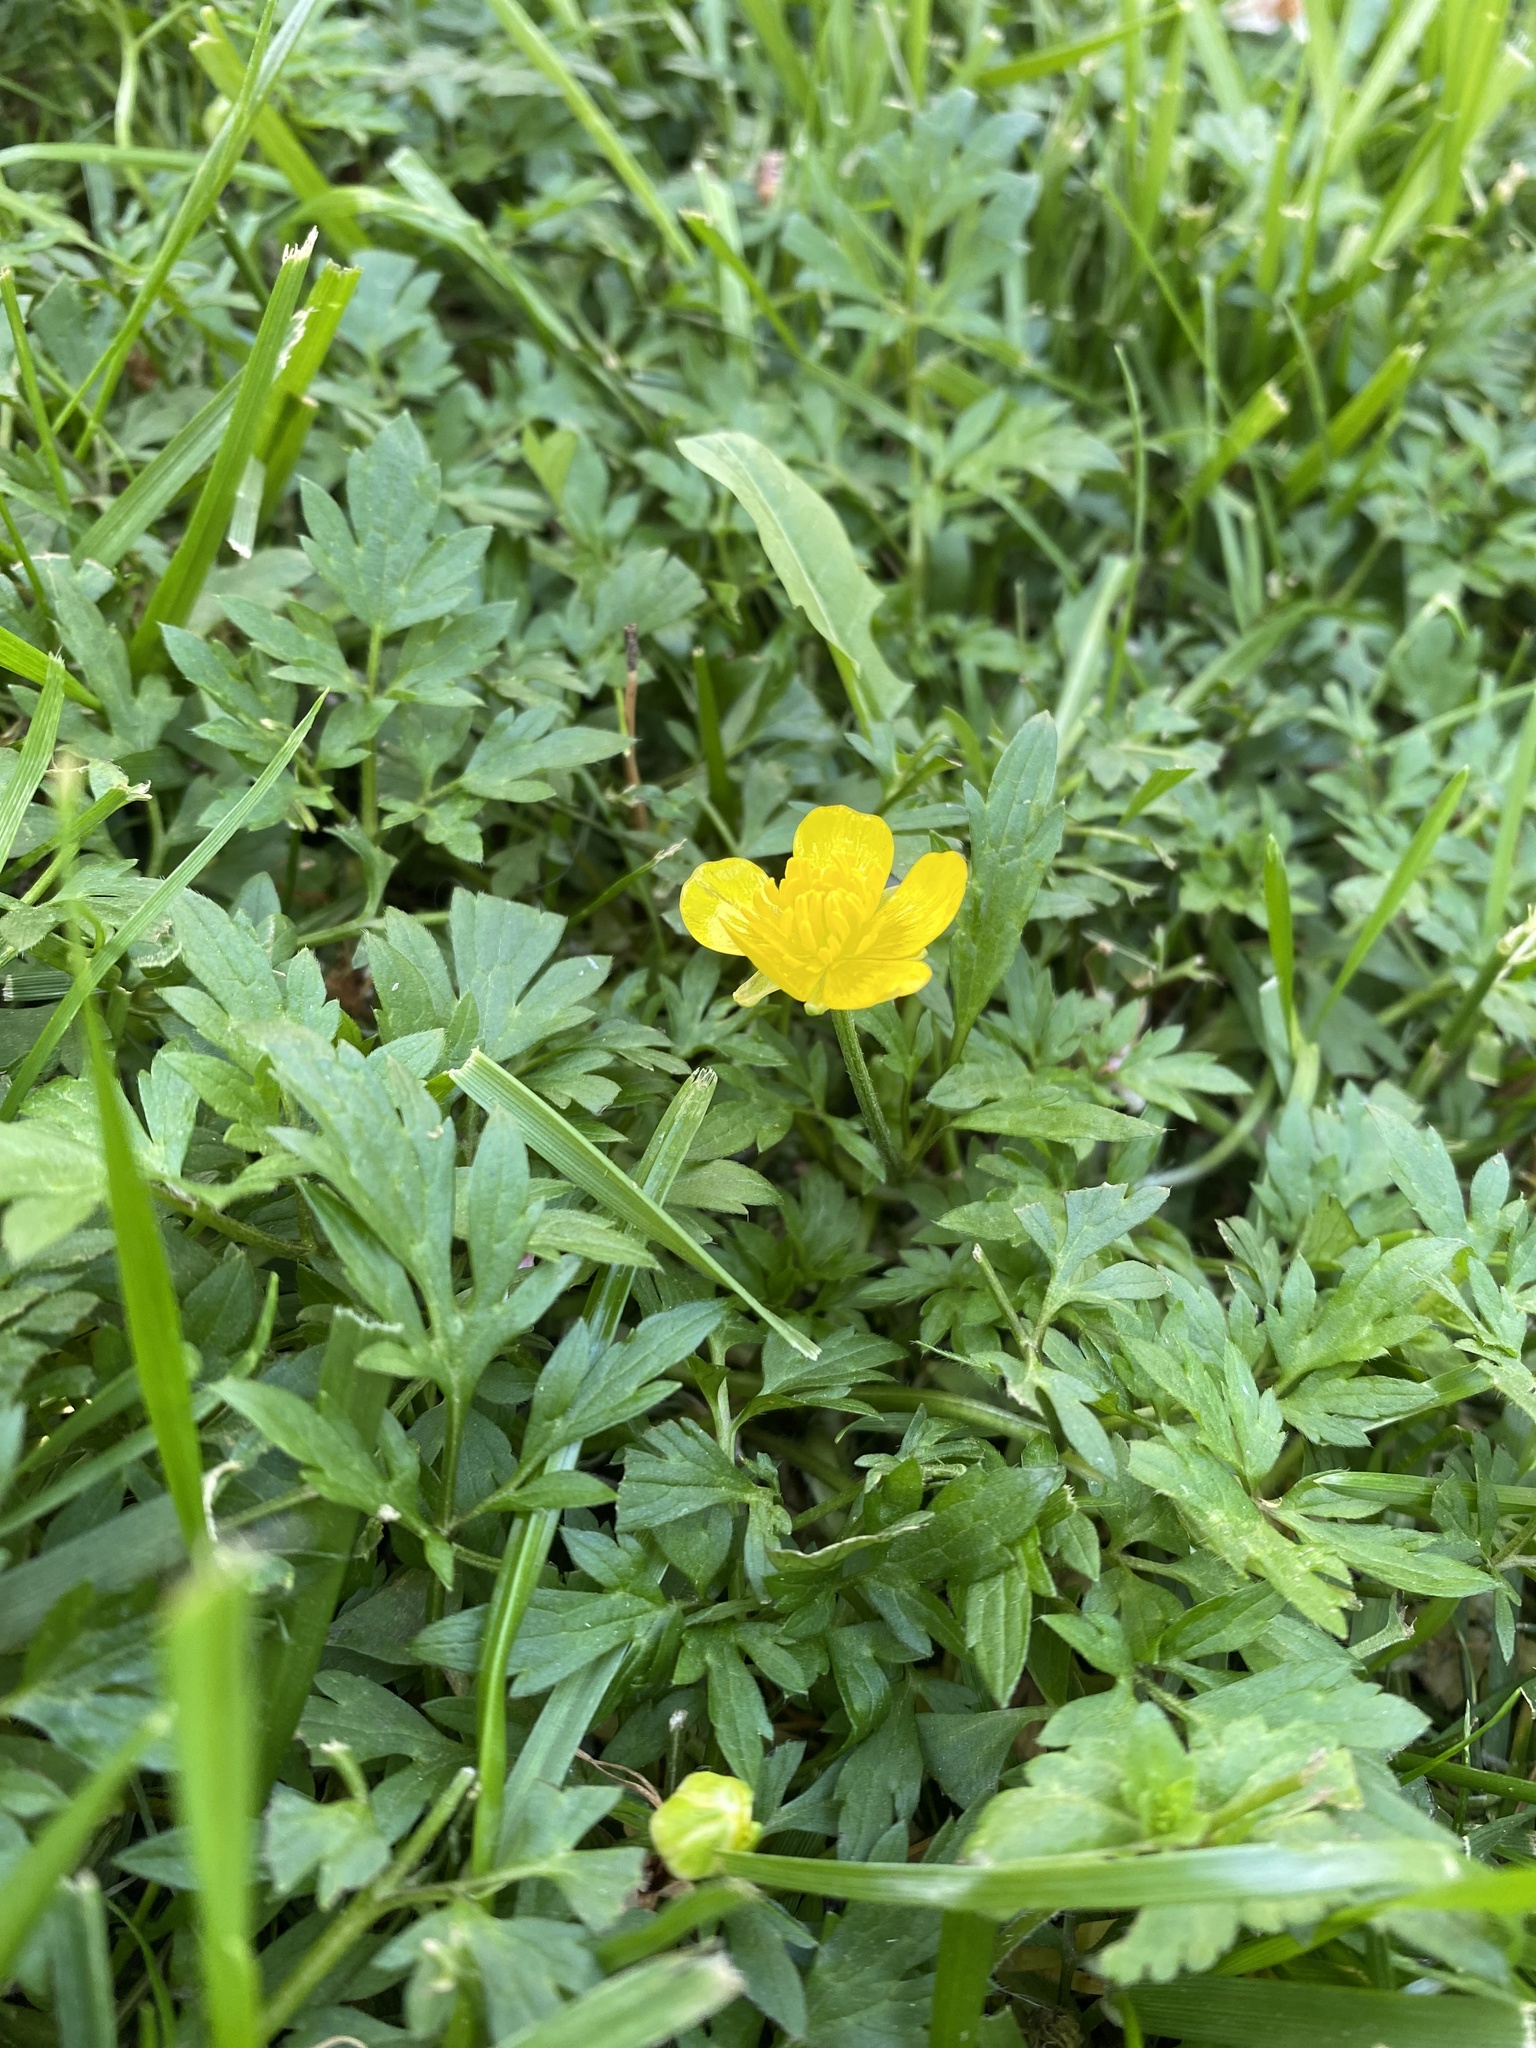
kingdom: Plantae
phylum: Tracheophyta
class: Magnoliopsida
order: Ranunculales
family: Ranunculaceae
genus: Ranunculus
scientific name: Ranunculus repens
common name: Creeping buttercup
